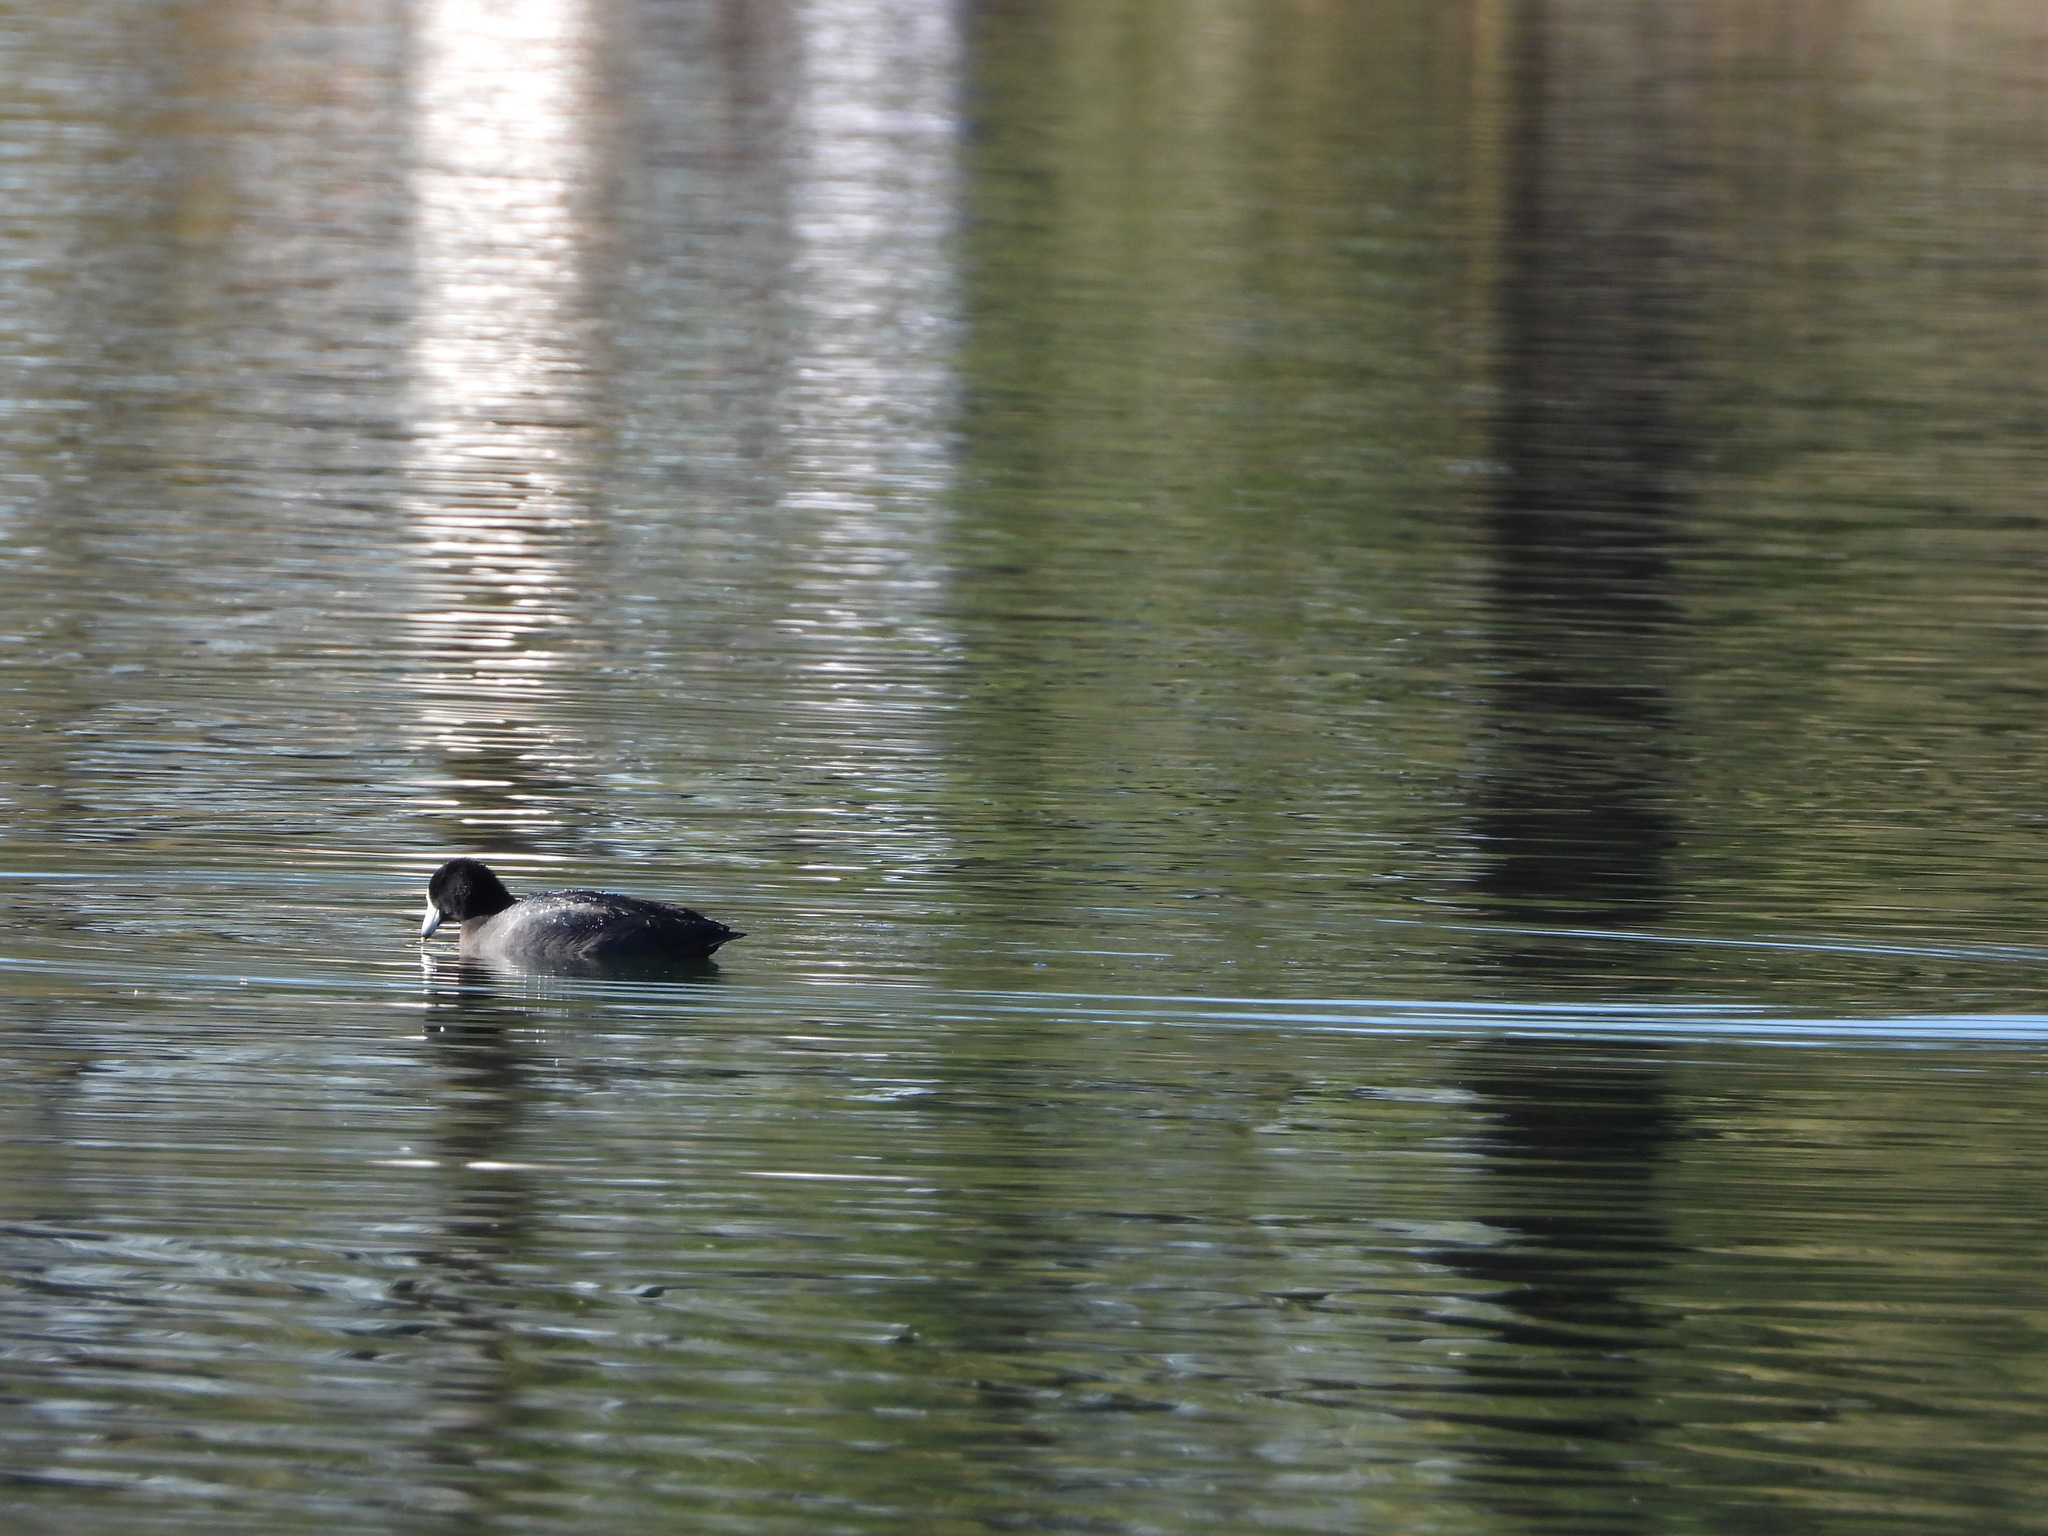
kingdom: Animalia
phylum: Chordata
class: Aves
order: Gruiformes
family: Rallidae
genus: Fulica
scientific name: Fulica americana
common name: American coot
